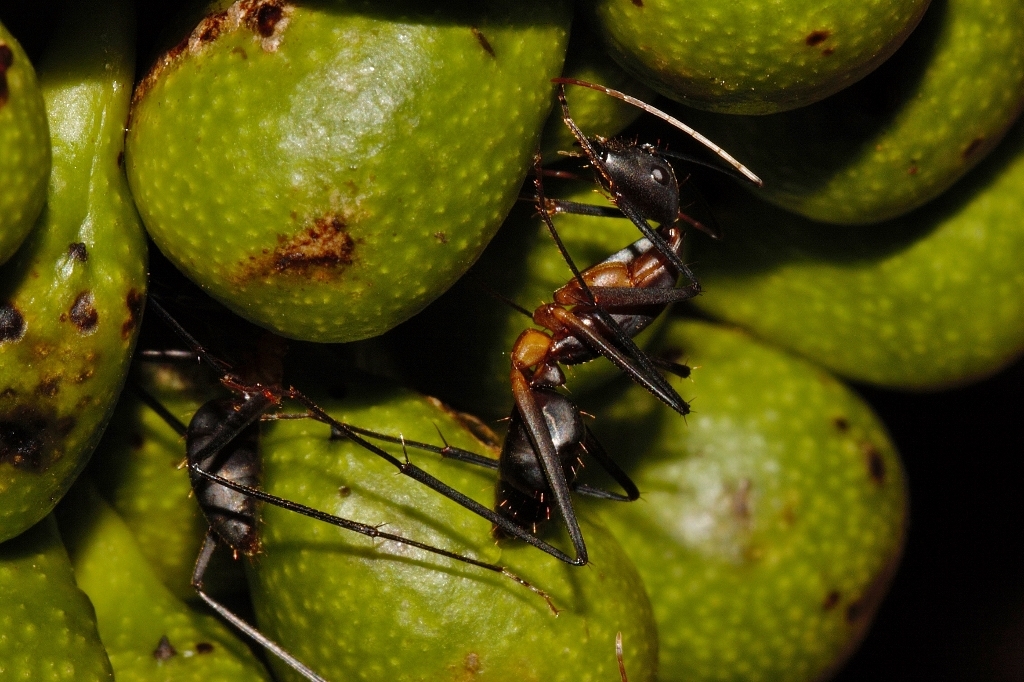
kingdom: Animalia
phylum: Arthropoda
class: Insecta
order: Hymenoptera
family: Formicidae
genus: Camponotus
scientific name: Camponotus etiolipes
